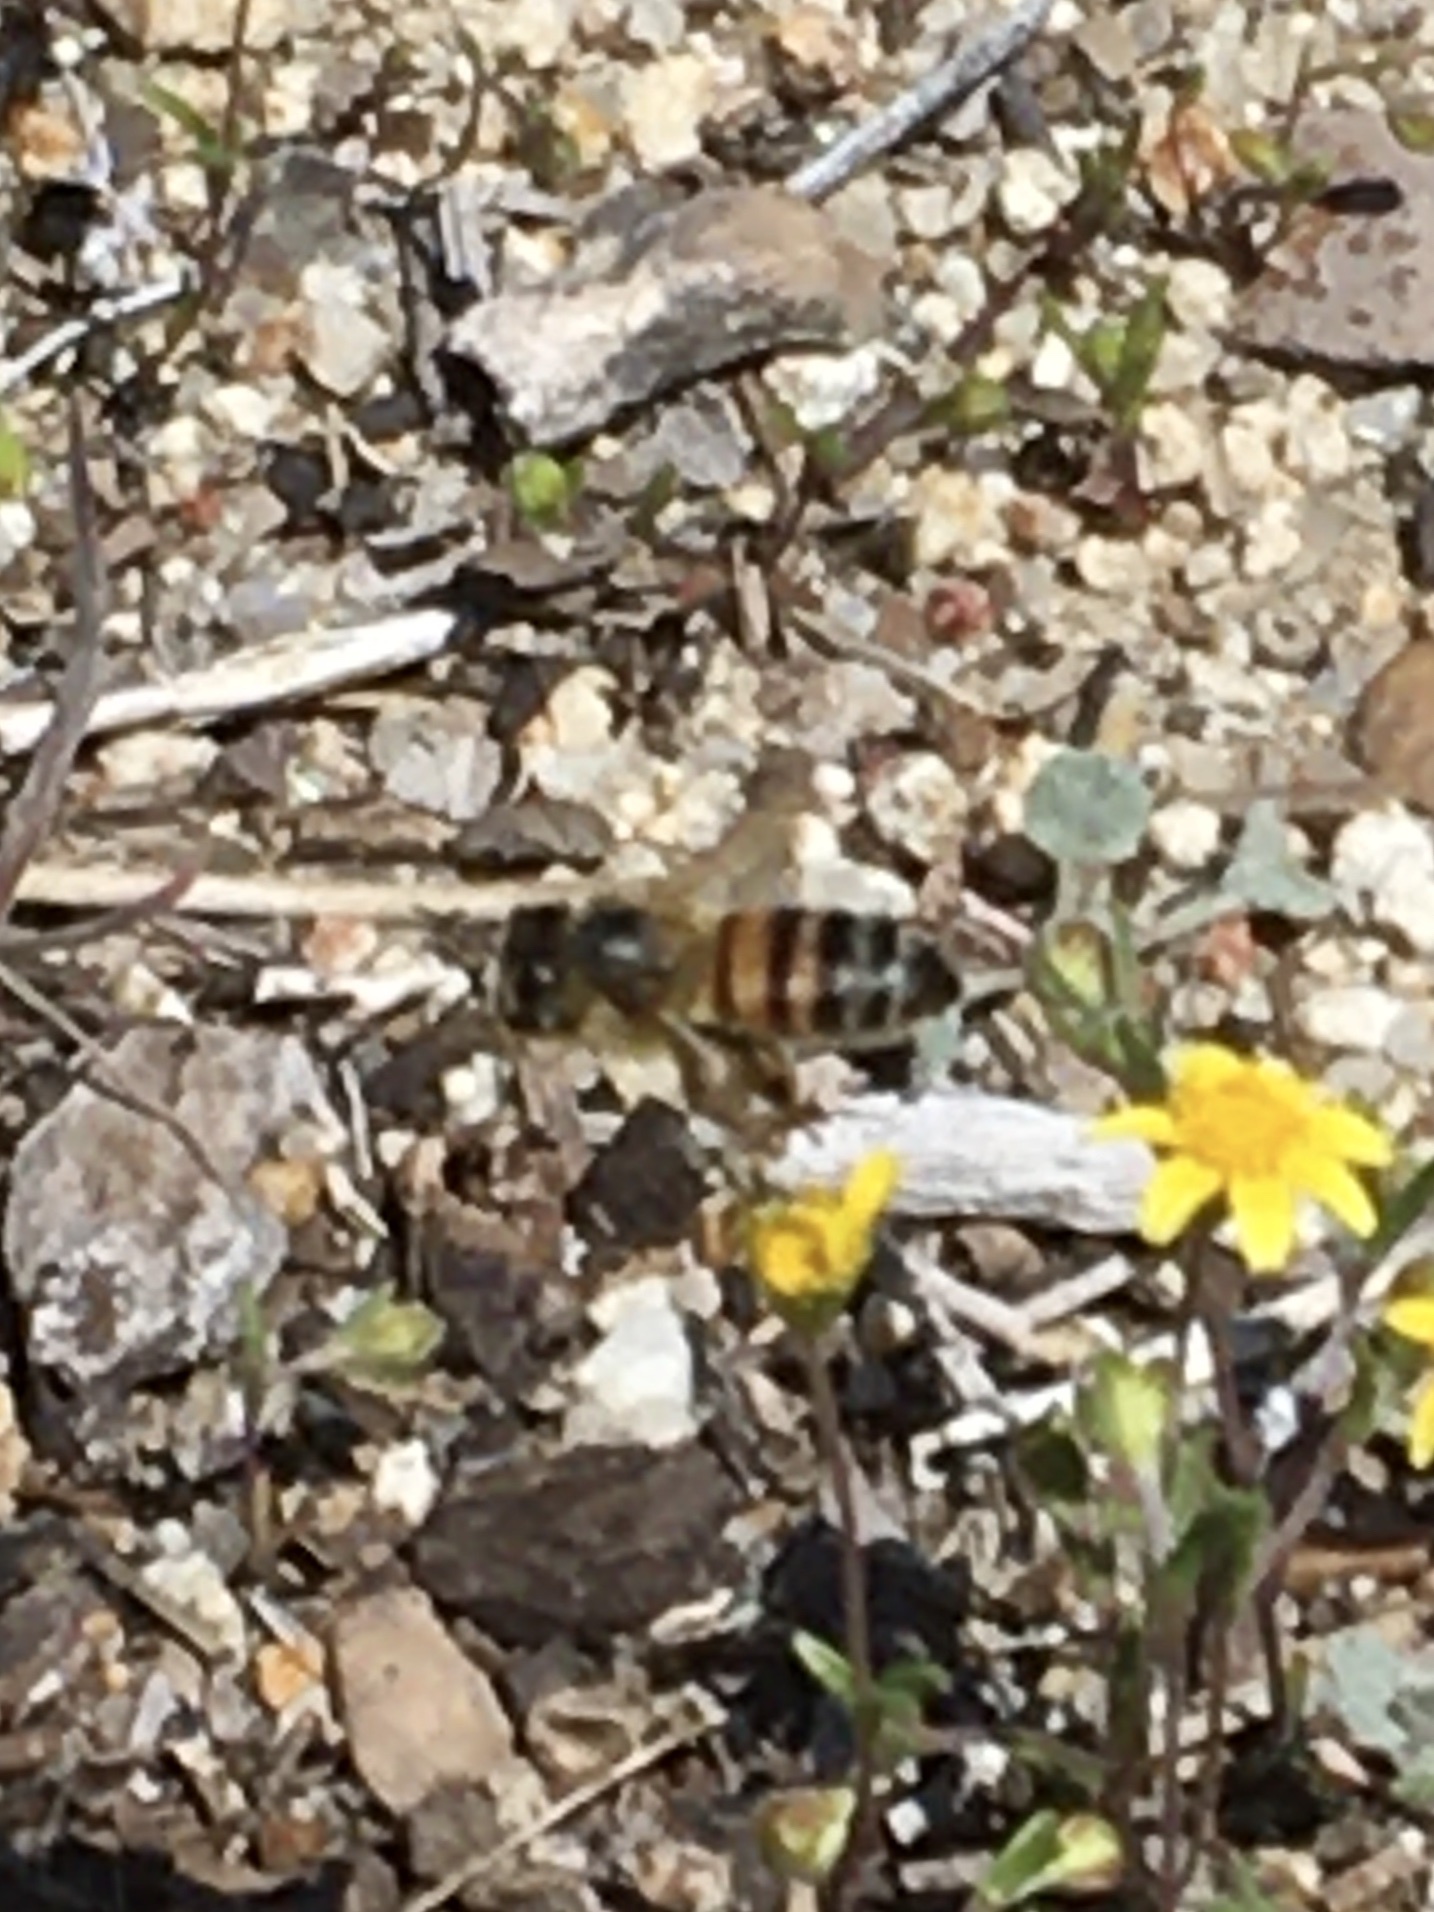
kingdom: Animalia
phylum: Arthropoda
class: Insecta
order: Hymenoptera
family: Apidae
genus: Apis
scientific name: Apis mellifera
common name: Honey bee
